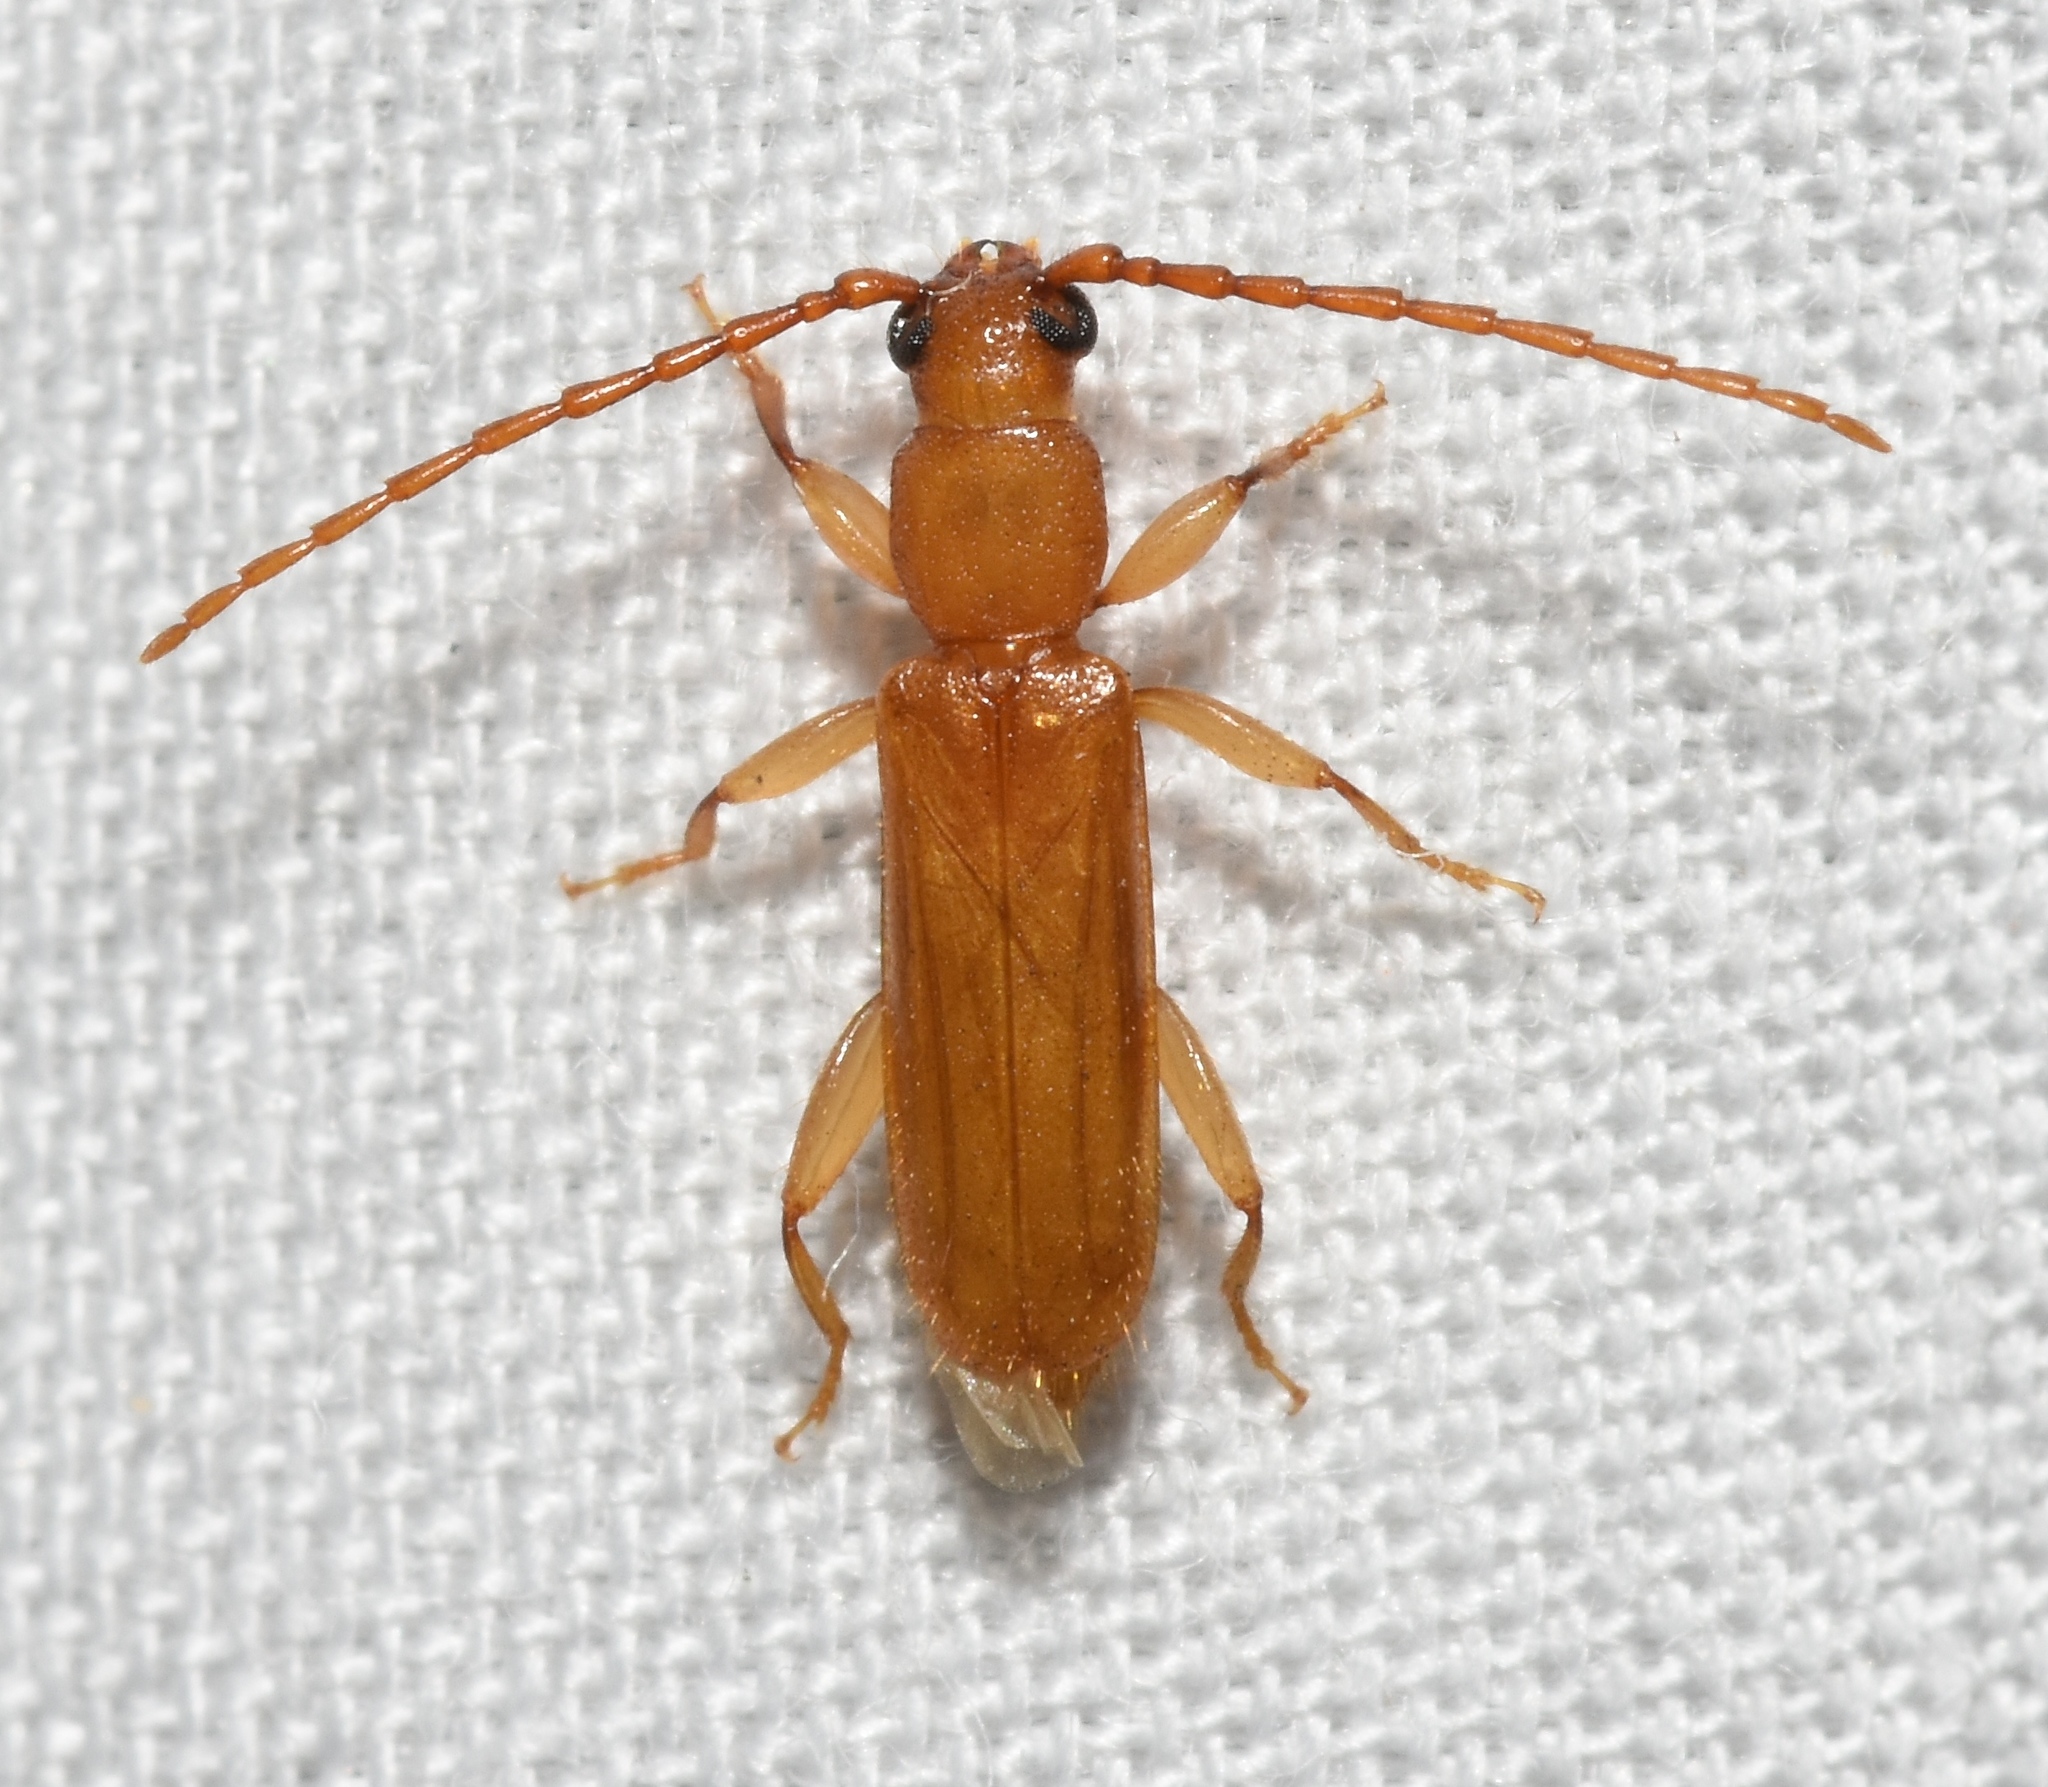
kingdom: Animalia
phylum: Arthropoda
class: Insecta
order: Coleoptera
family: Cerambycidae
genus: Smodicum
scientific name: Smodicum cucujiforme
